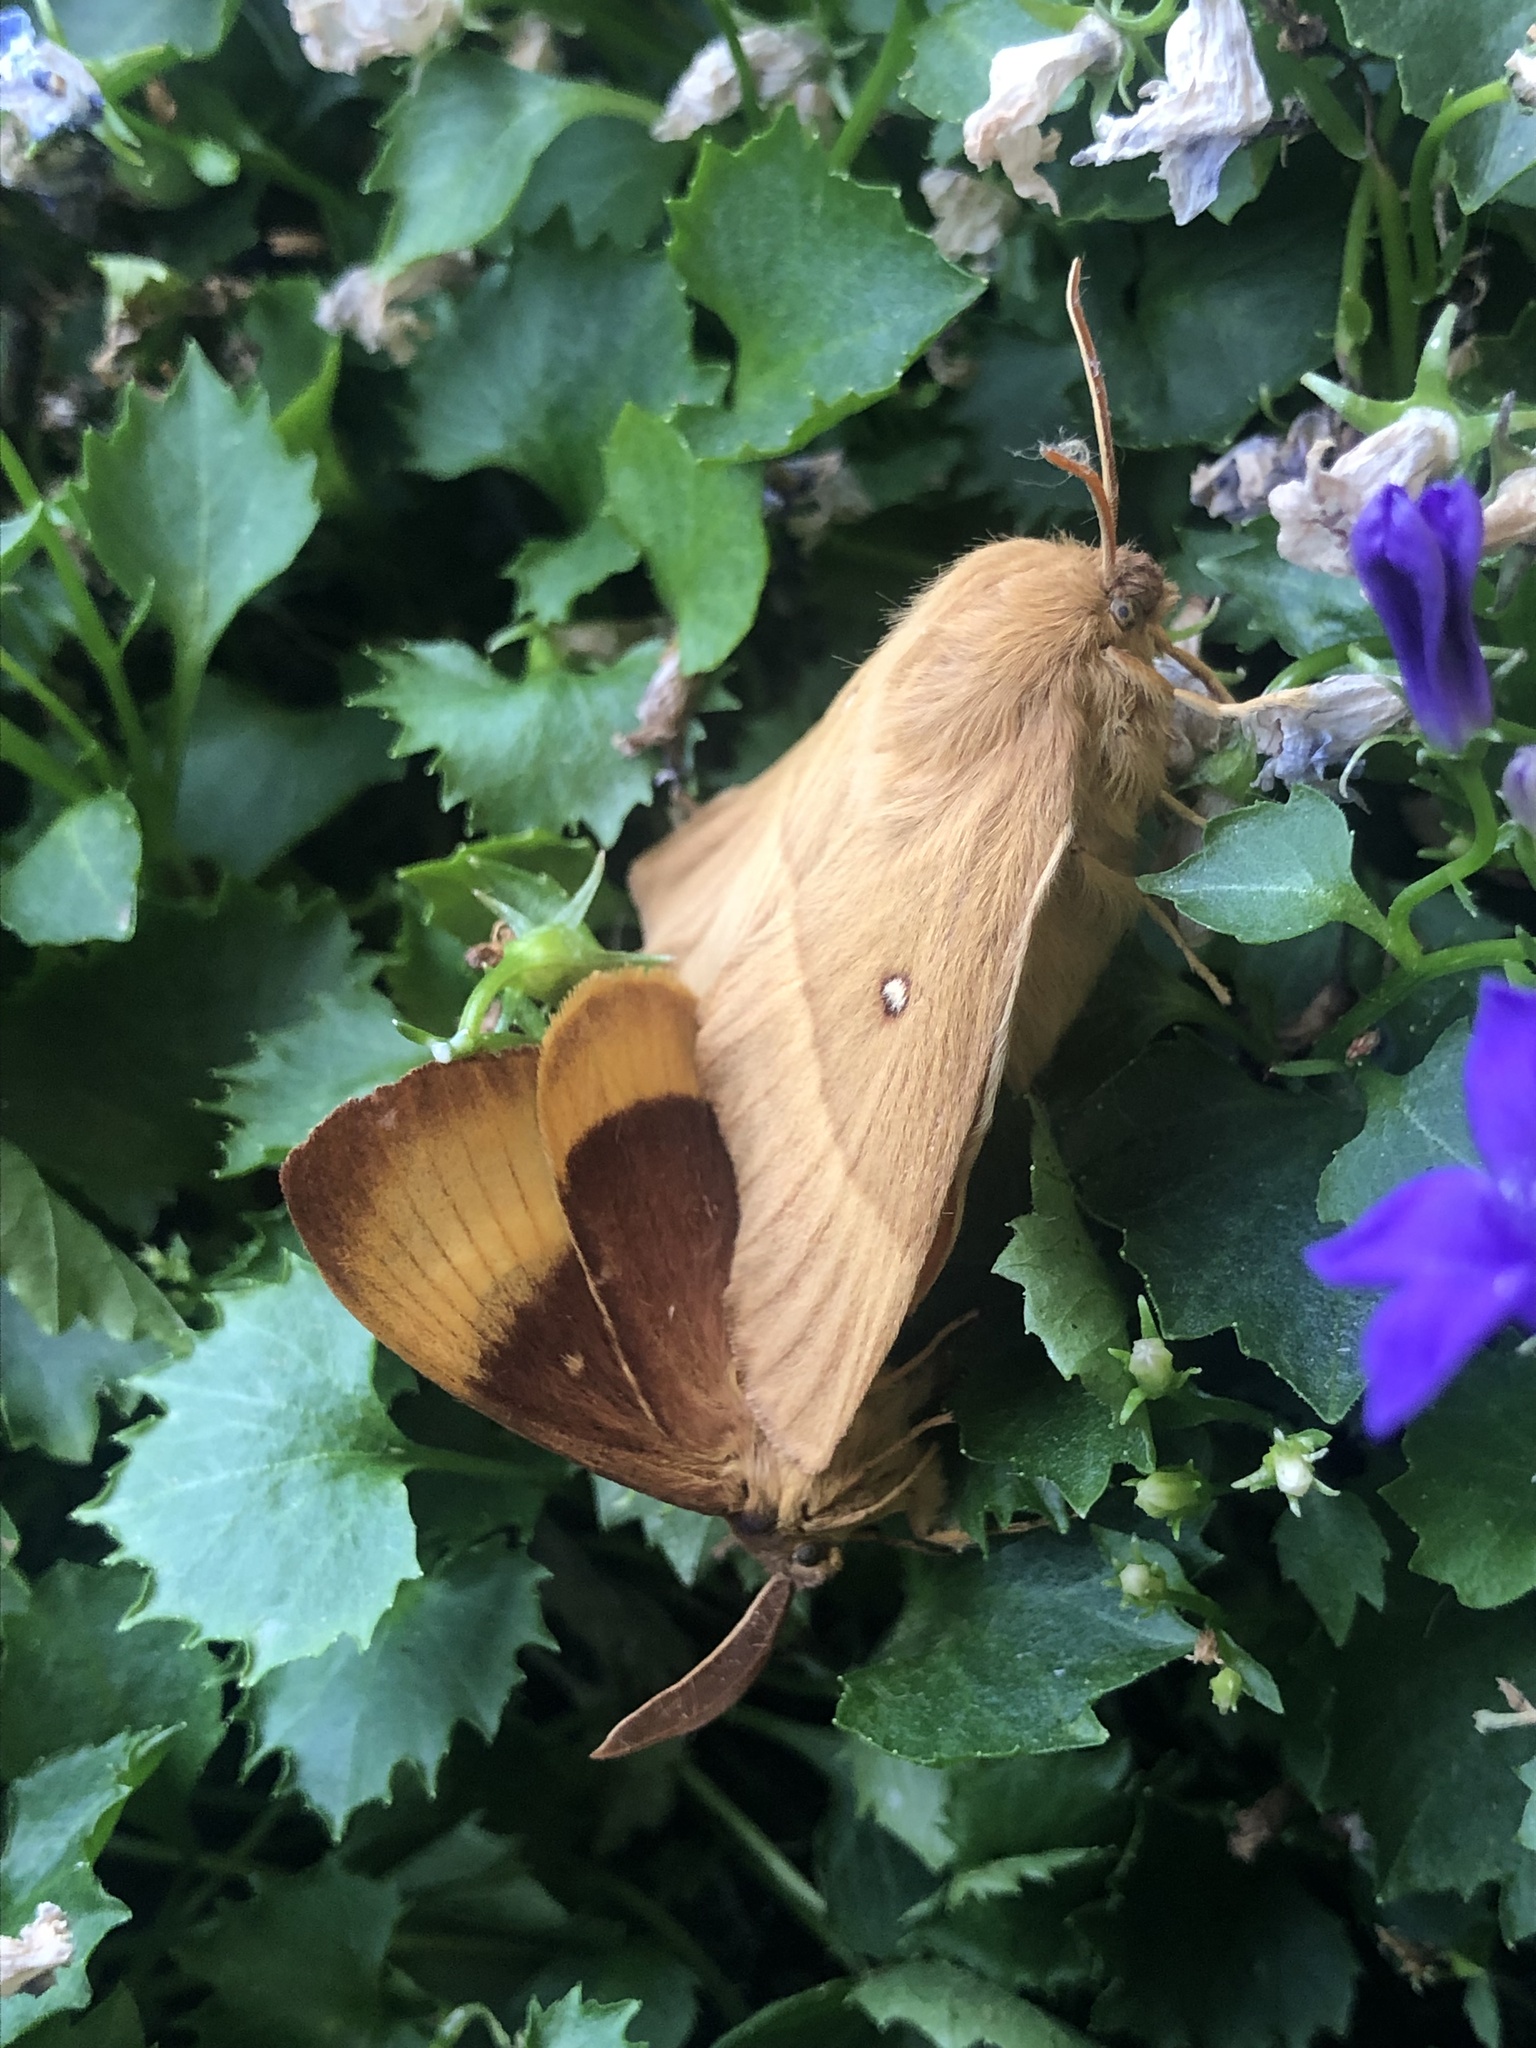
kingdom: Animalia
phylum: Arthropoda
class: Insecta
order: Lepidoptera
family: Lasiocampidae
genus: Lasiocampa
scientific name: Lasiocampa quercus
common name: Oak eggar
